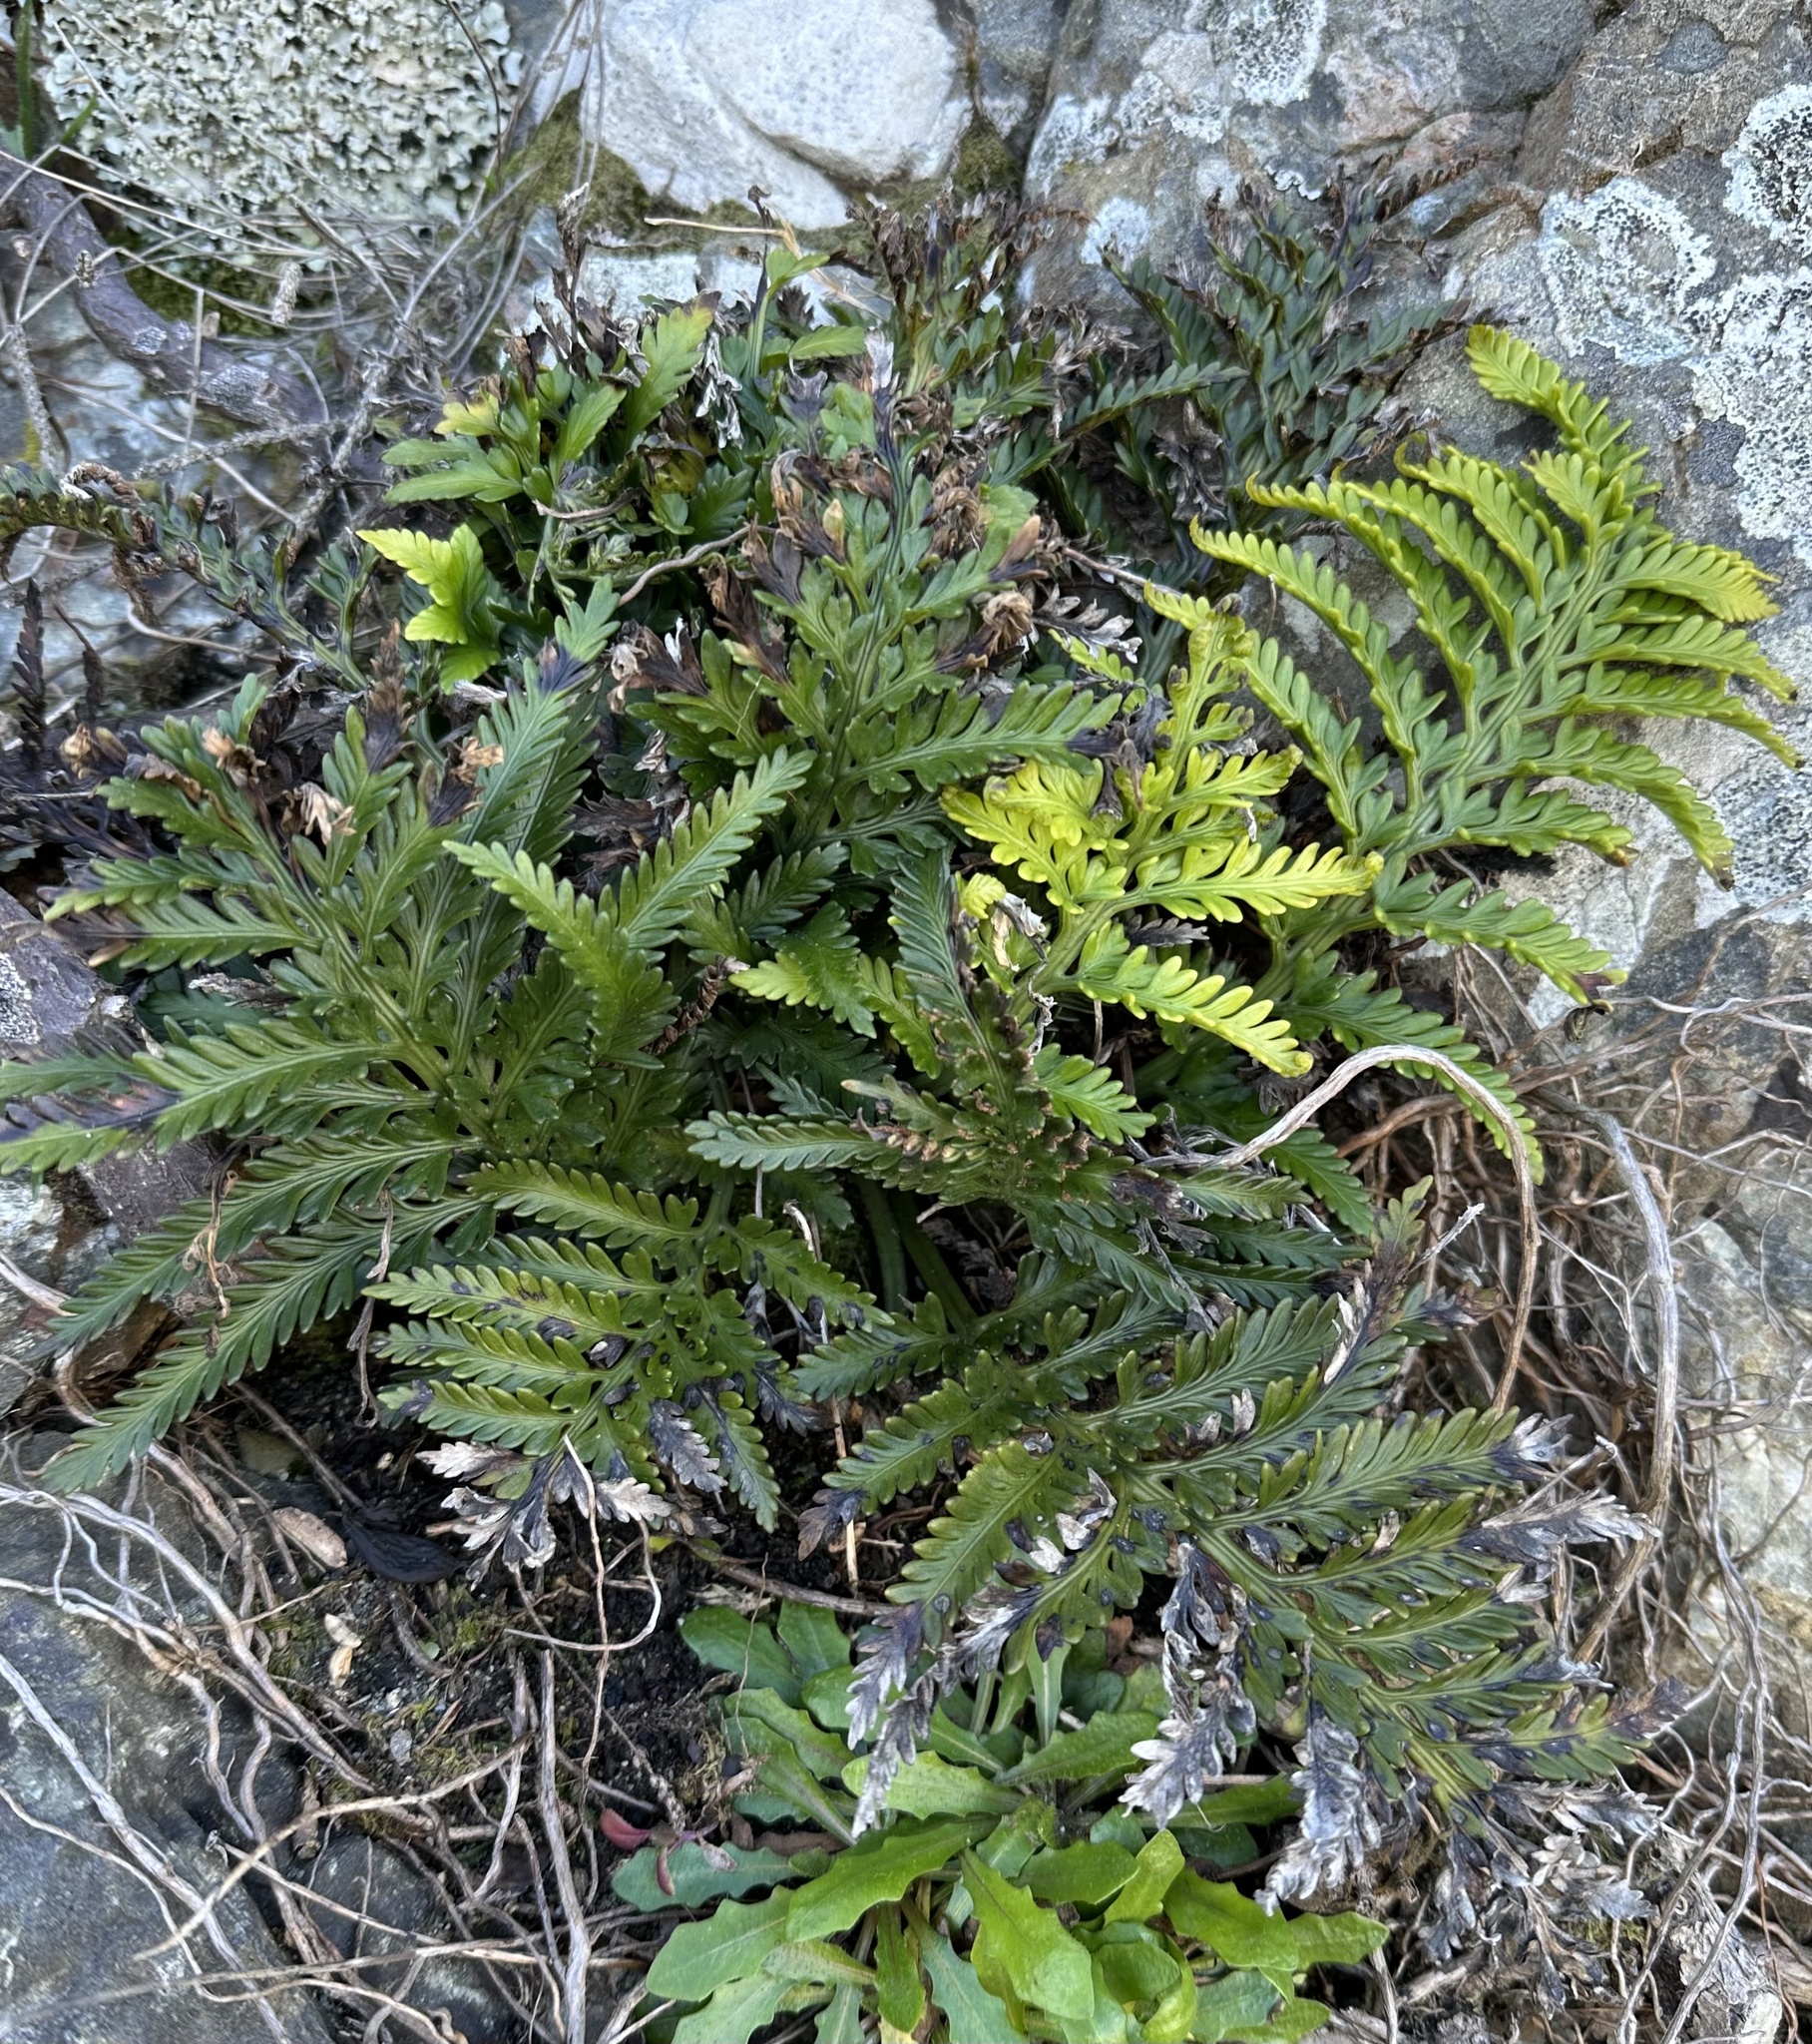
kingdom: Plantae
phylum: Tracheophyta
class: Polypodiopsida
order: Polypodiales
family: Aspleniaceae
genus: Asplenium
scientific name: Asplenium appendiculatum
